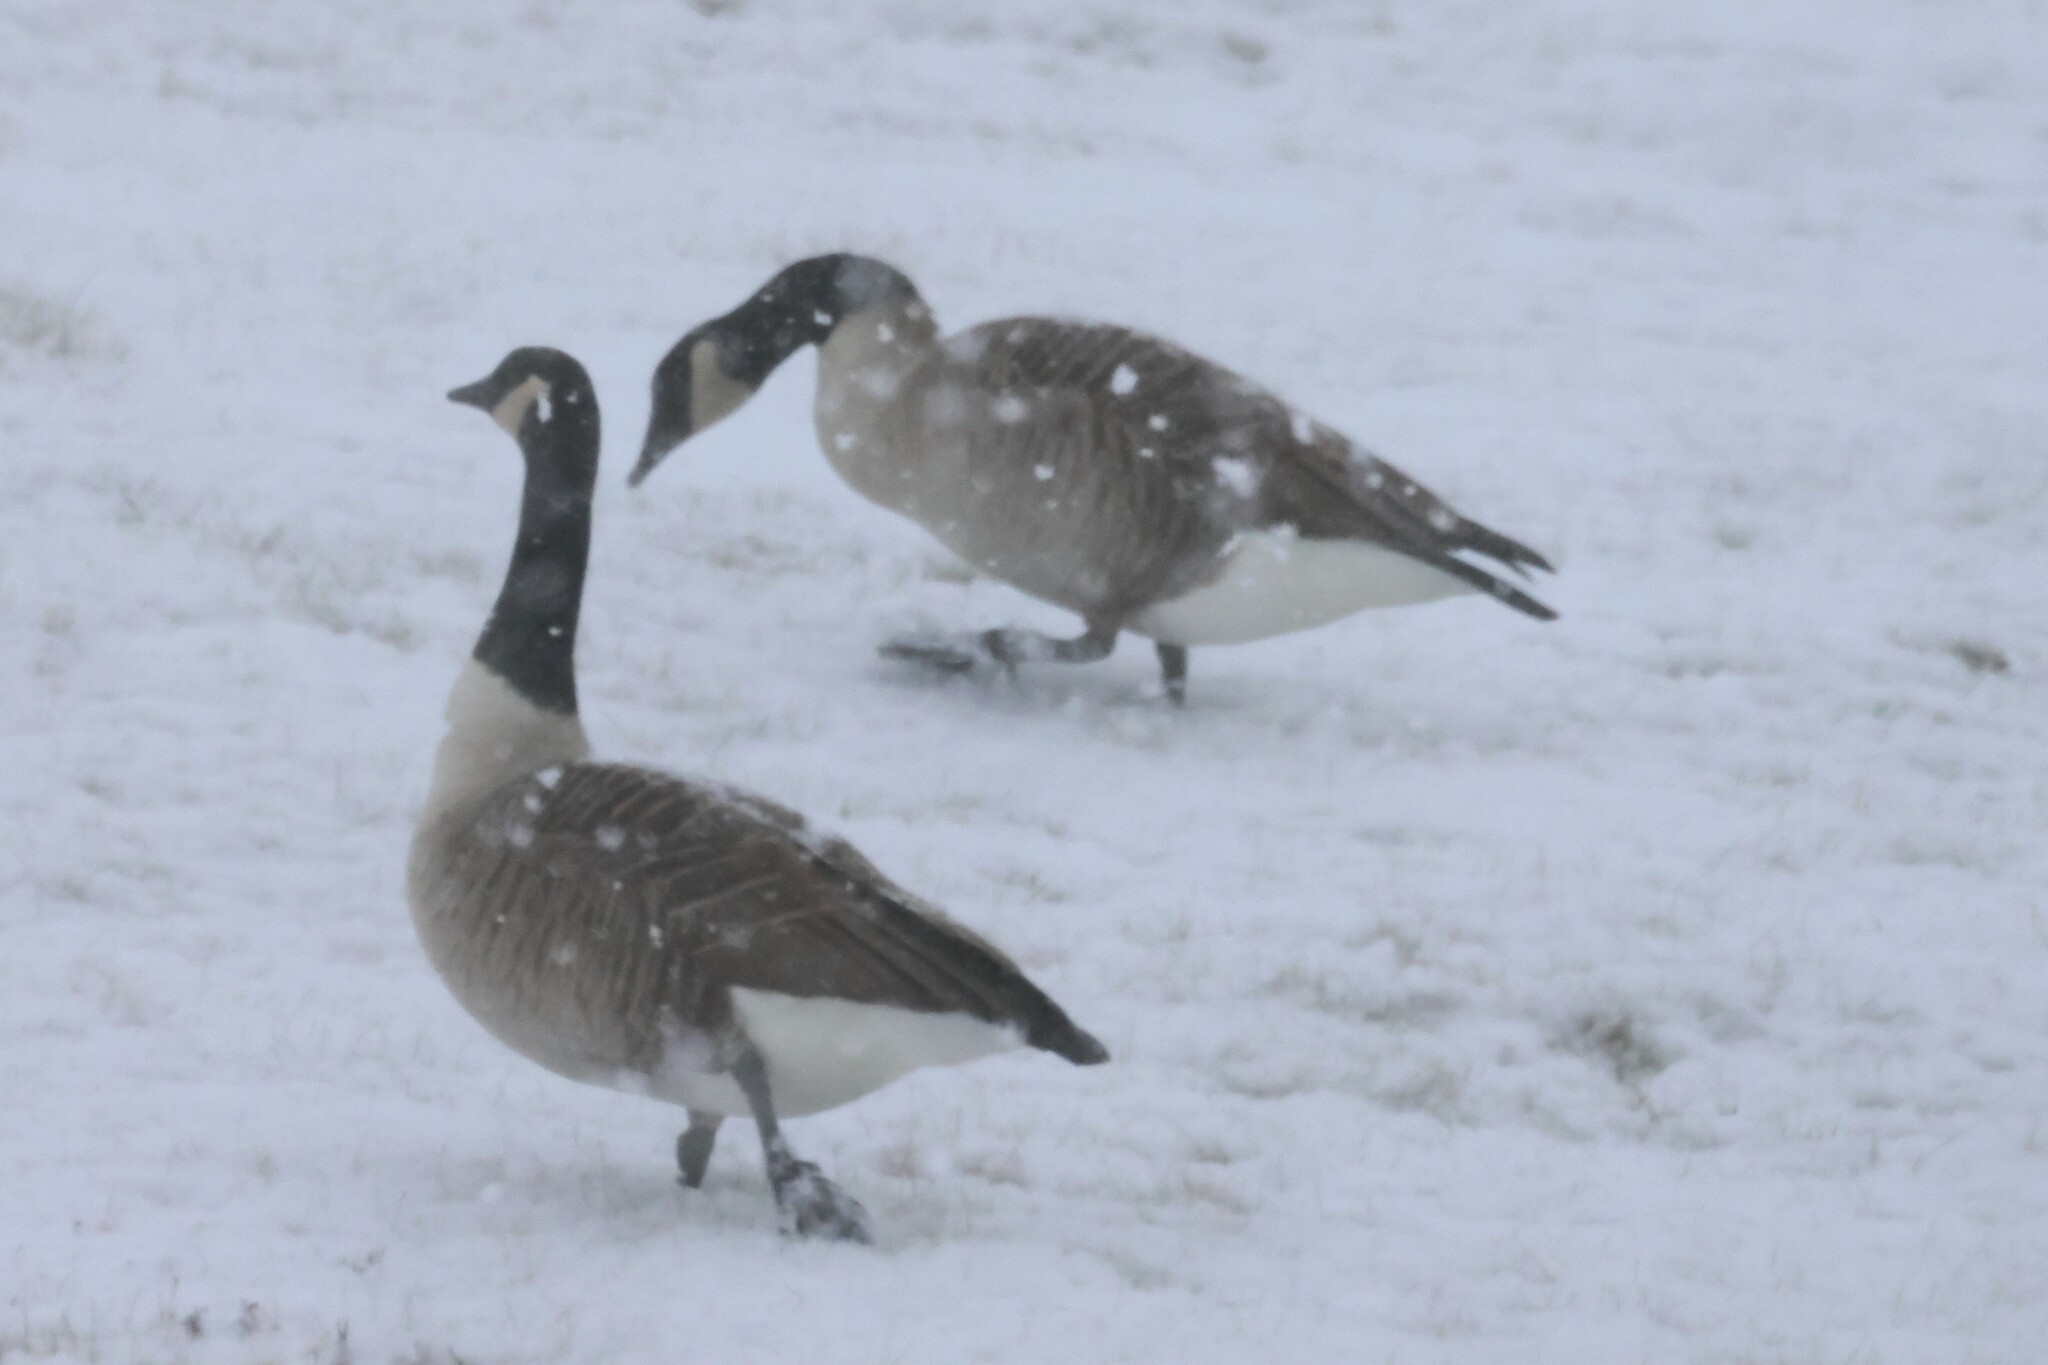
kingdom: Animalia
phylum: Chordata
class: Aves
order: Anseriformes
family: Anatidae
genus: Branta
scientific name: Branta canadensis
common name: Canada goose
